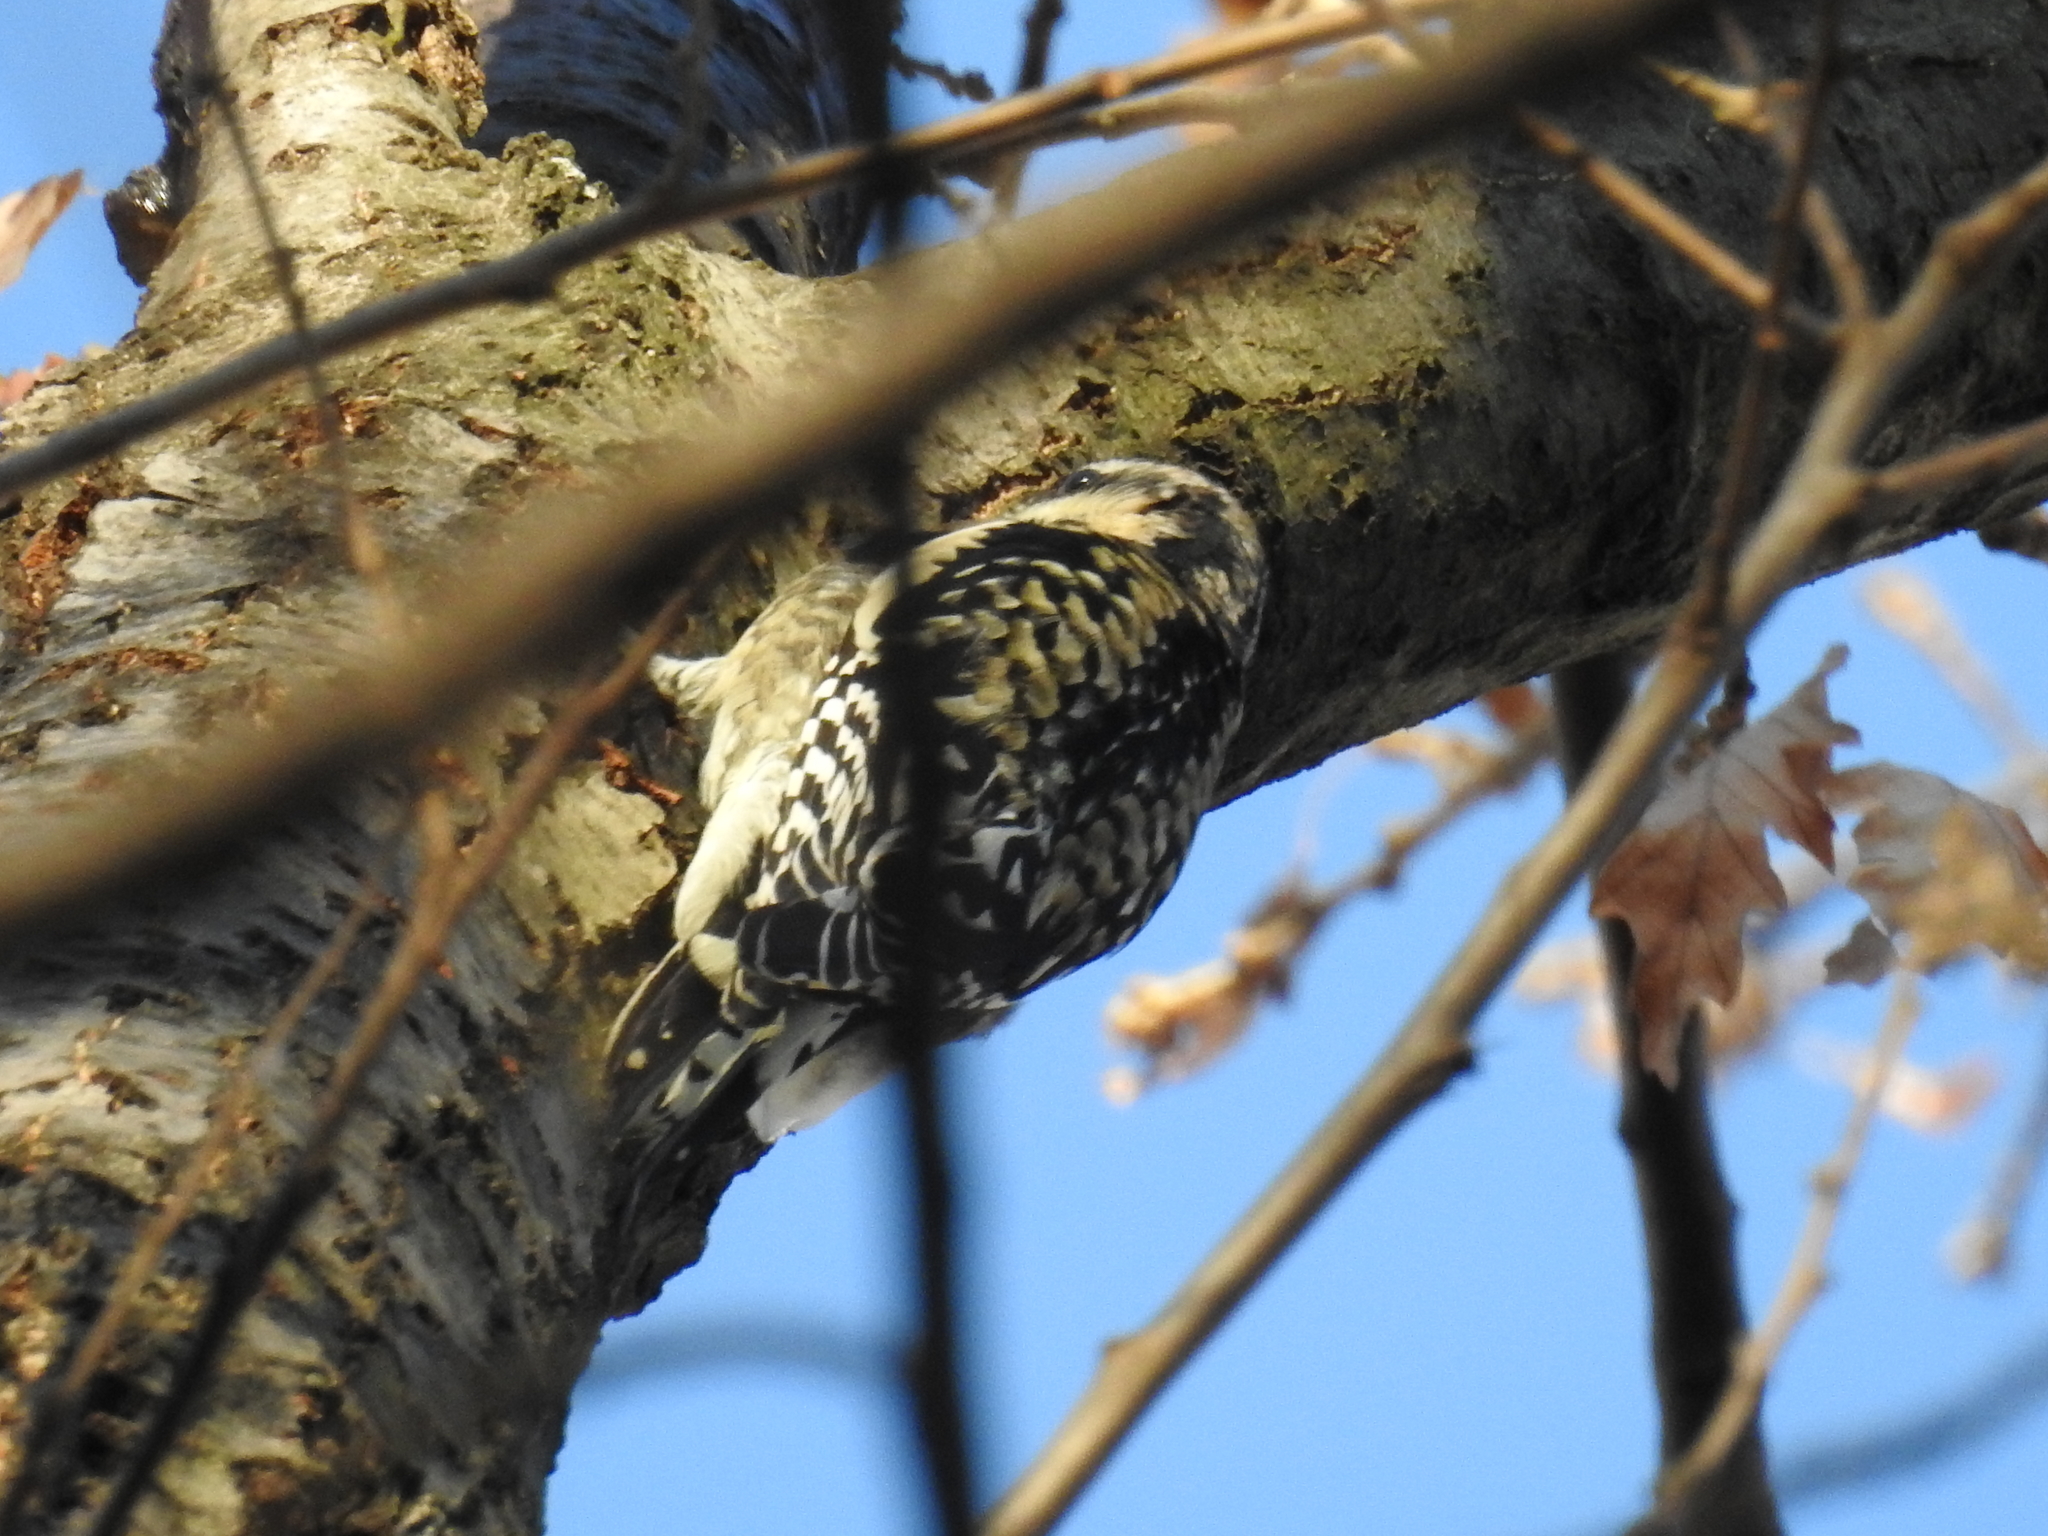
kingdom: Animalia
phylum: Chordata
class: Aves
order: Piciformes
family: Picidae
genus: Sphyrapicus
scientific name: Sphyrapicus varius
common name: Yellow-bellied sapsucker
